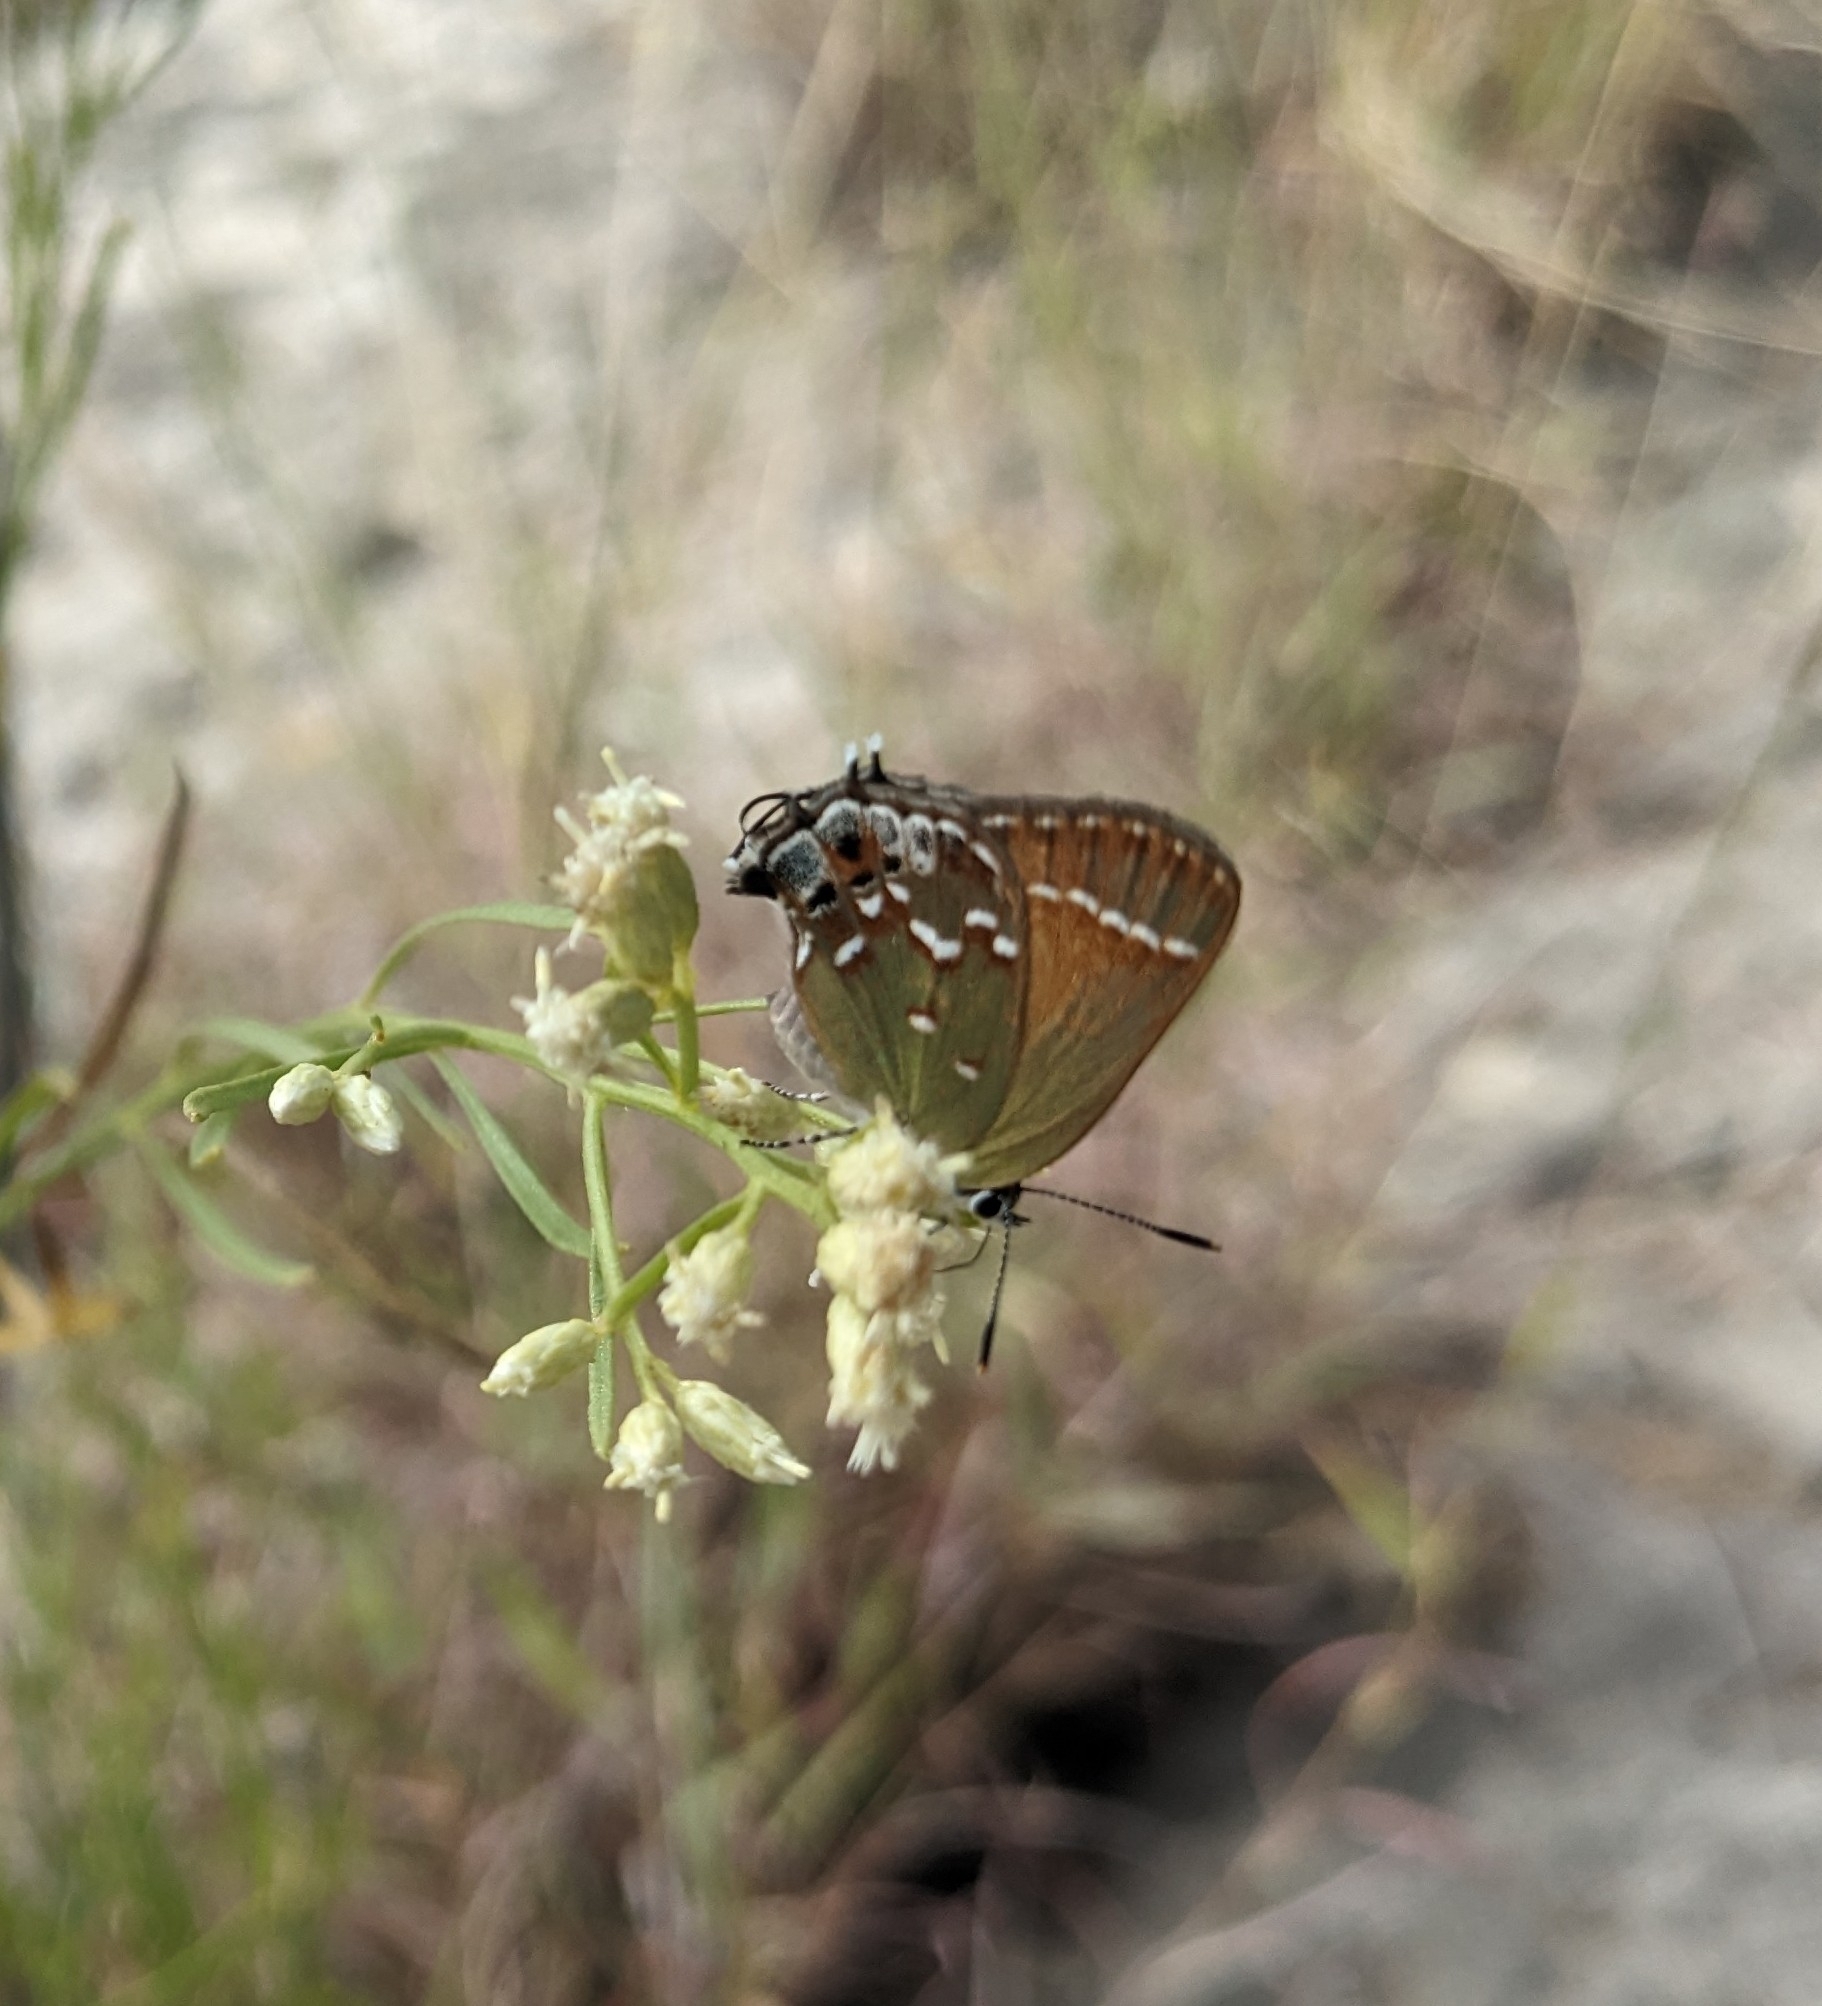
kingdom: Animalia
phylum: Arthropoda
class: Insecta
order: Lepidoptera
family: Lycaenidae
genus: Mitoura
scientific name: Mitoura gryneus
